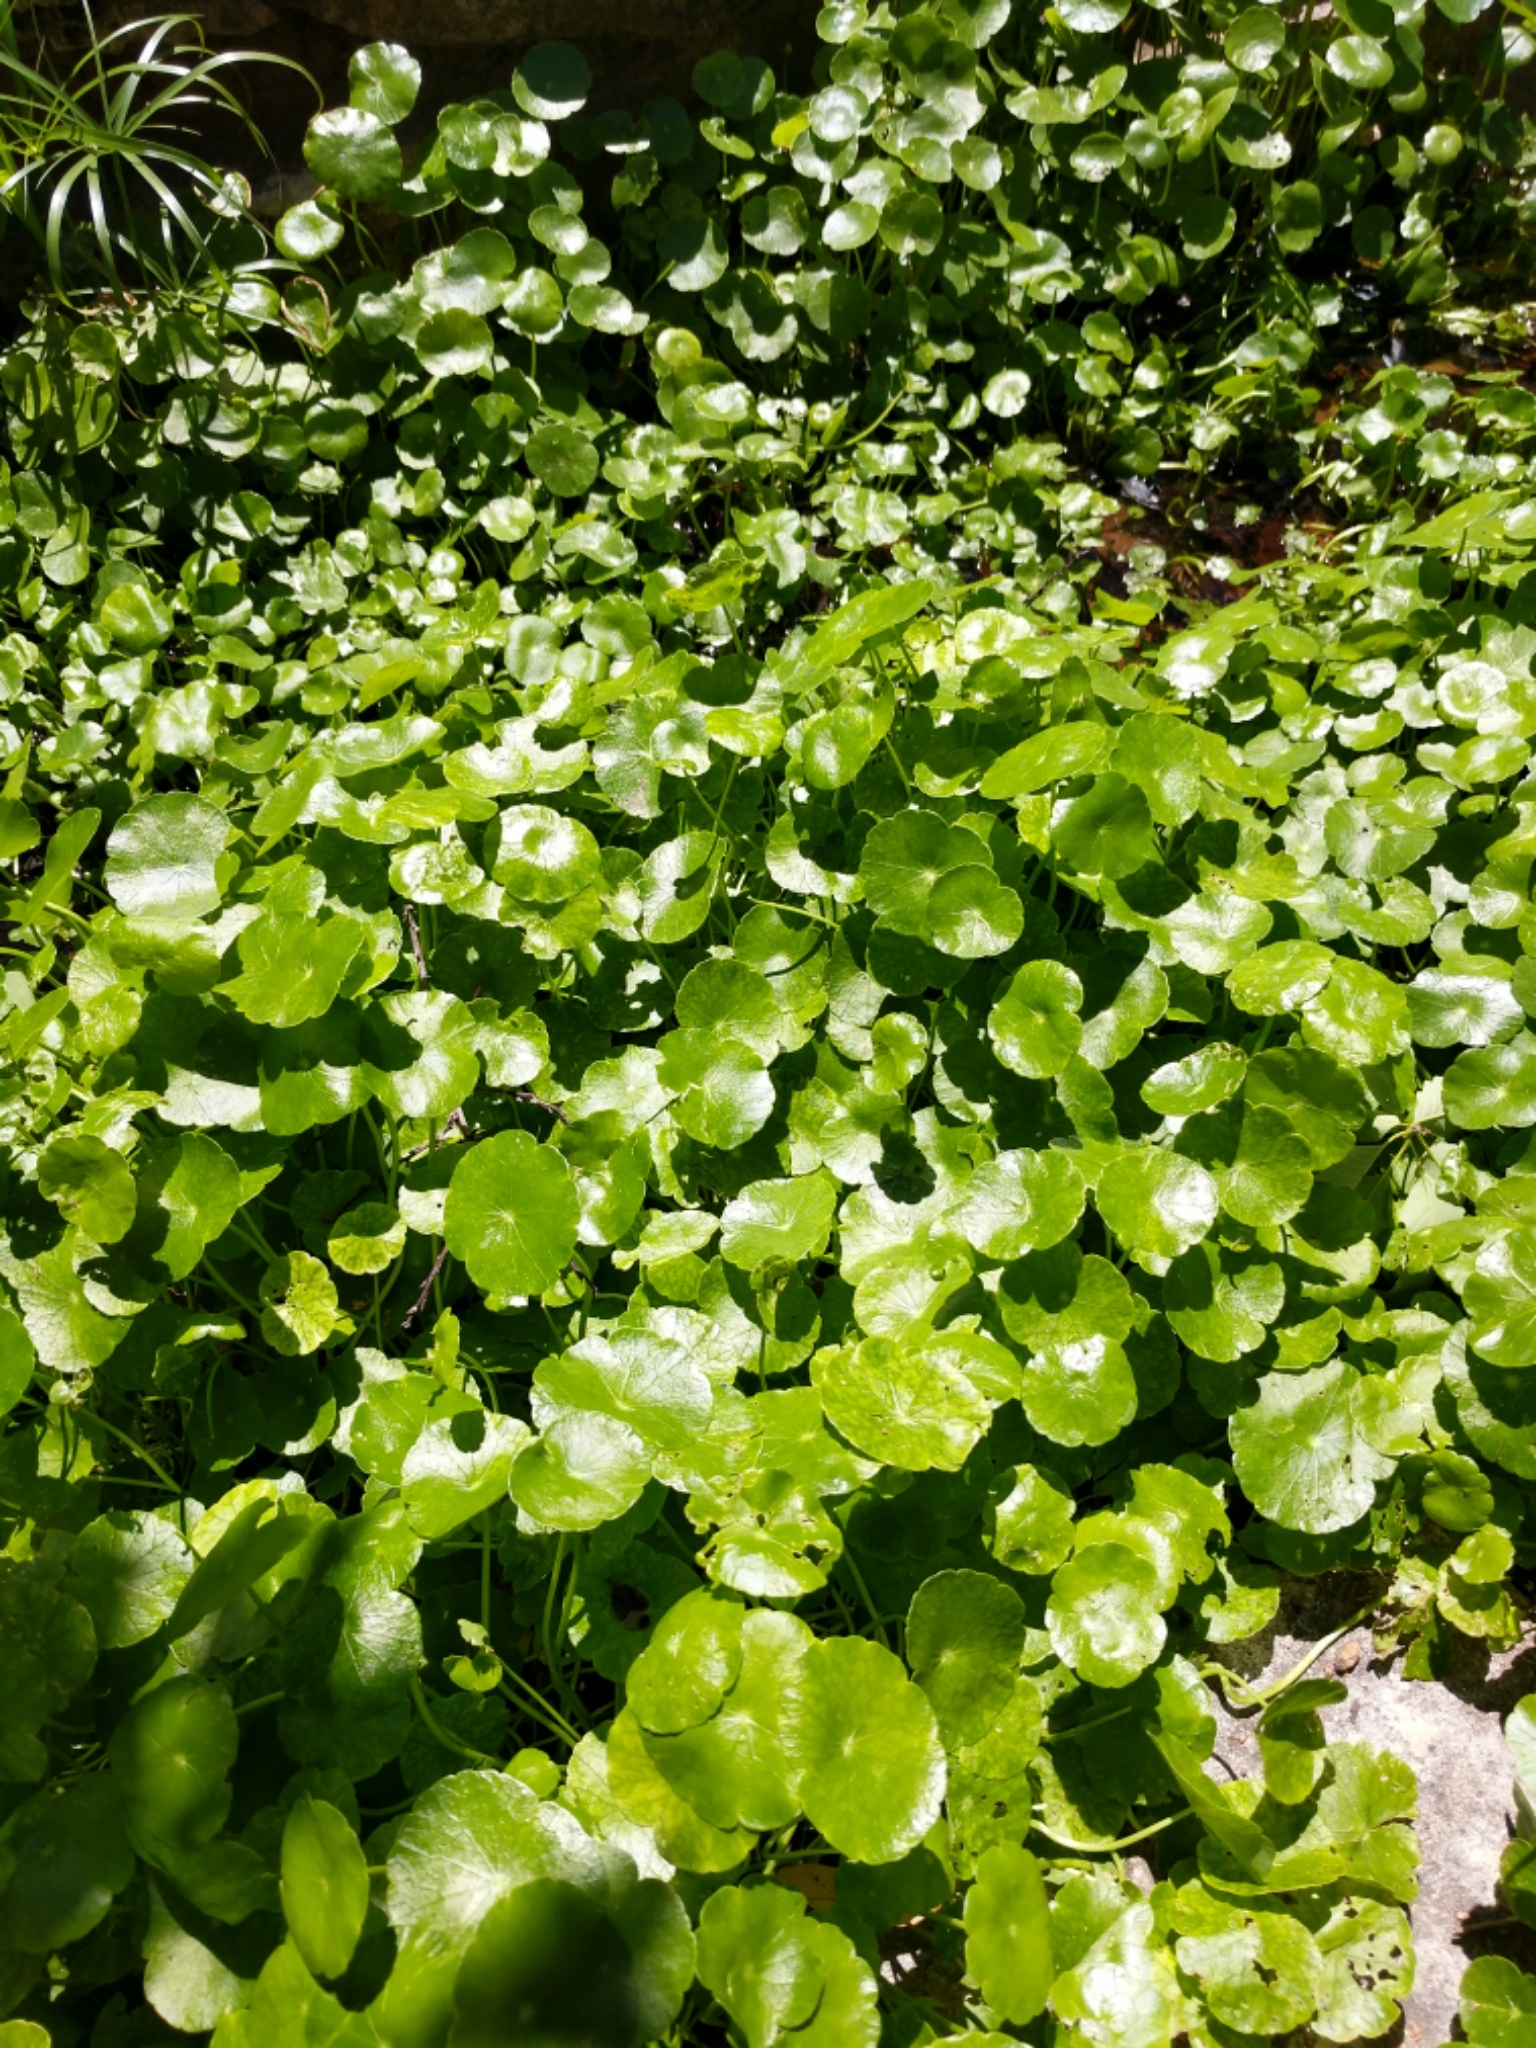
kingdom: Plantae
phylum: Tracheophyta
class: Magnoliopsida
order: Apiales
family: Araliaceae
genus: Hydrocotyle
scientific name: Hydrocotyle verticillata
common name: Whorled marshpennywort
